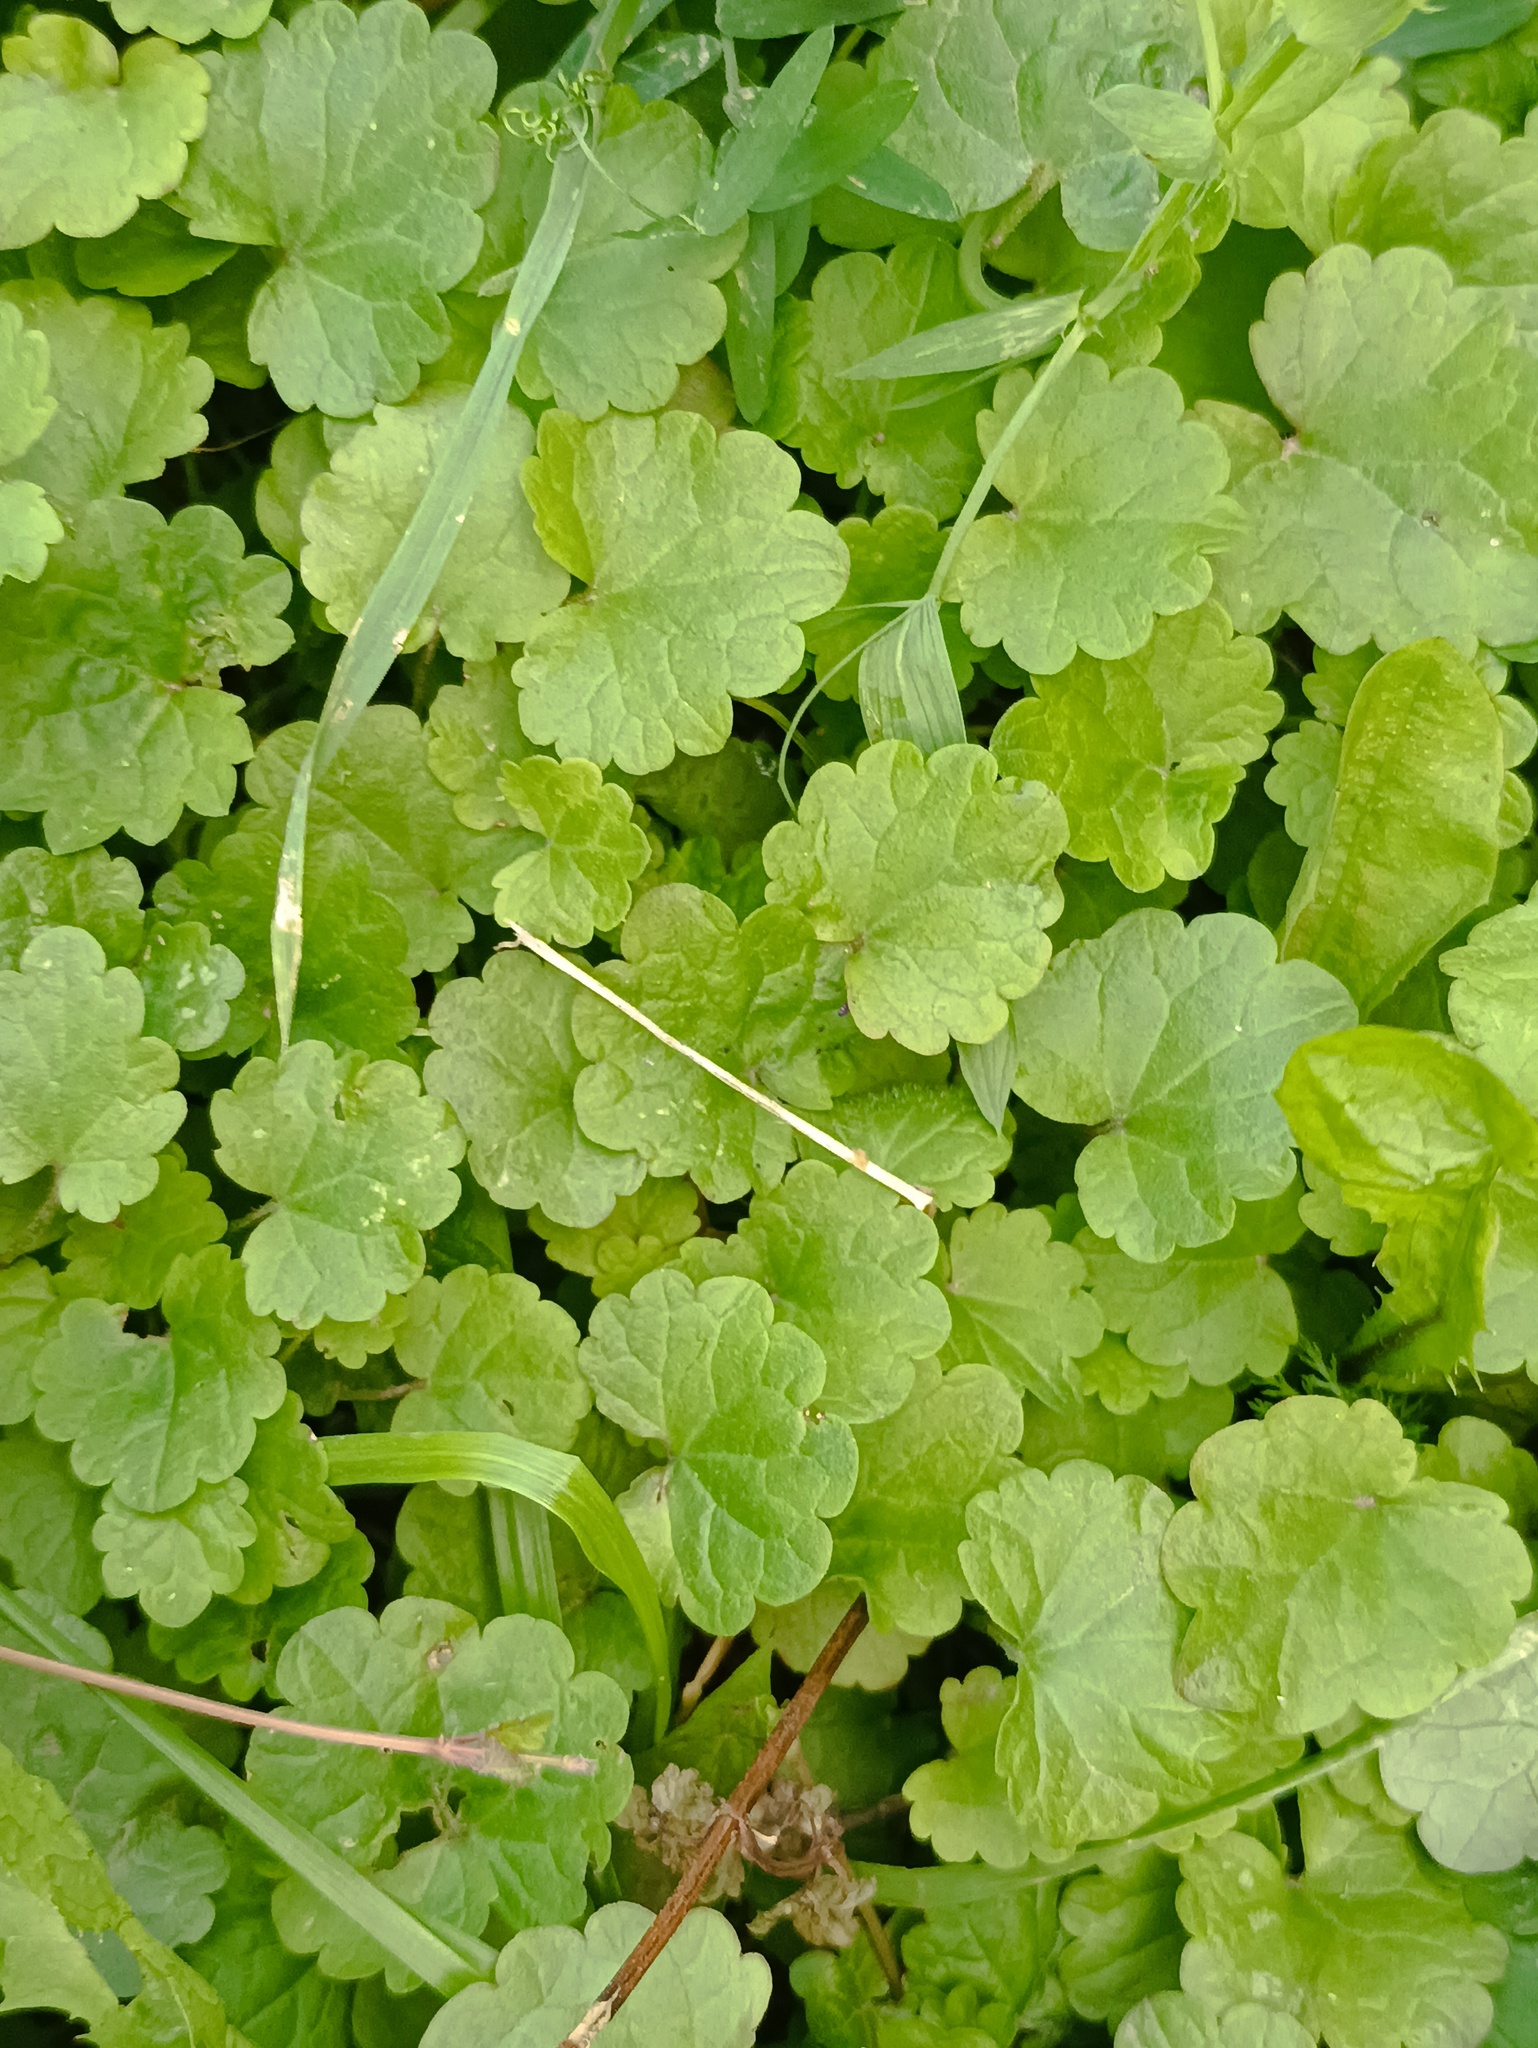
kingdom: Plantae
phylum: Tracheophyta
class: Magnoliopsida
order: Lamiales
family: Lamiaceae
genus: Glechoma
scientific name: Glechoma hederacea
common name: Ground ivy
